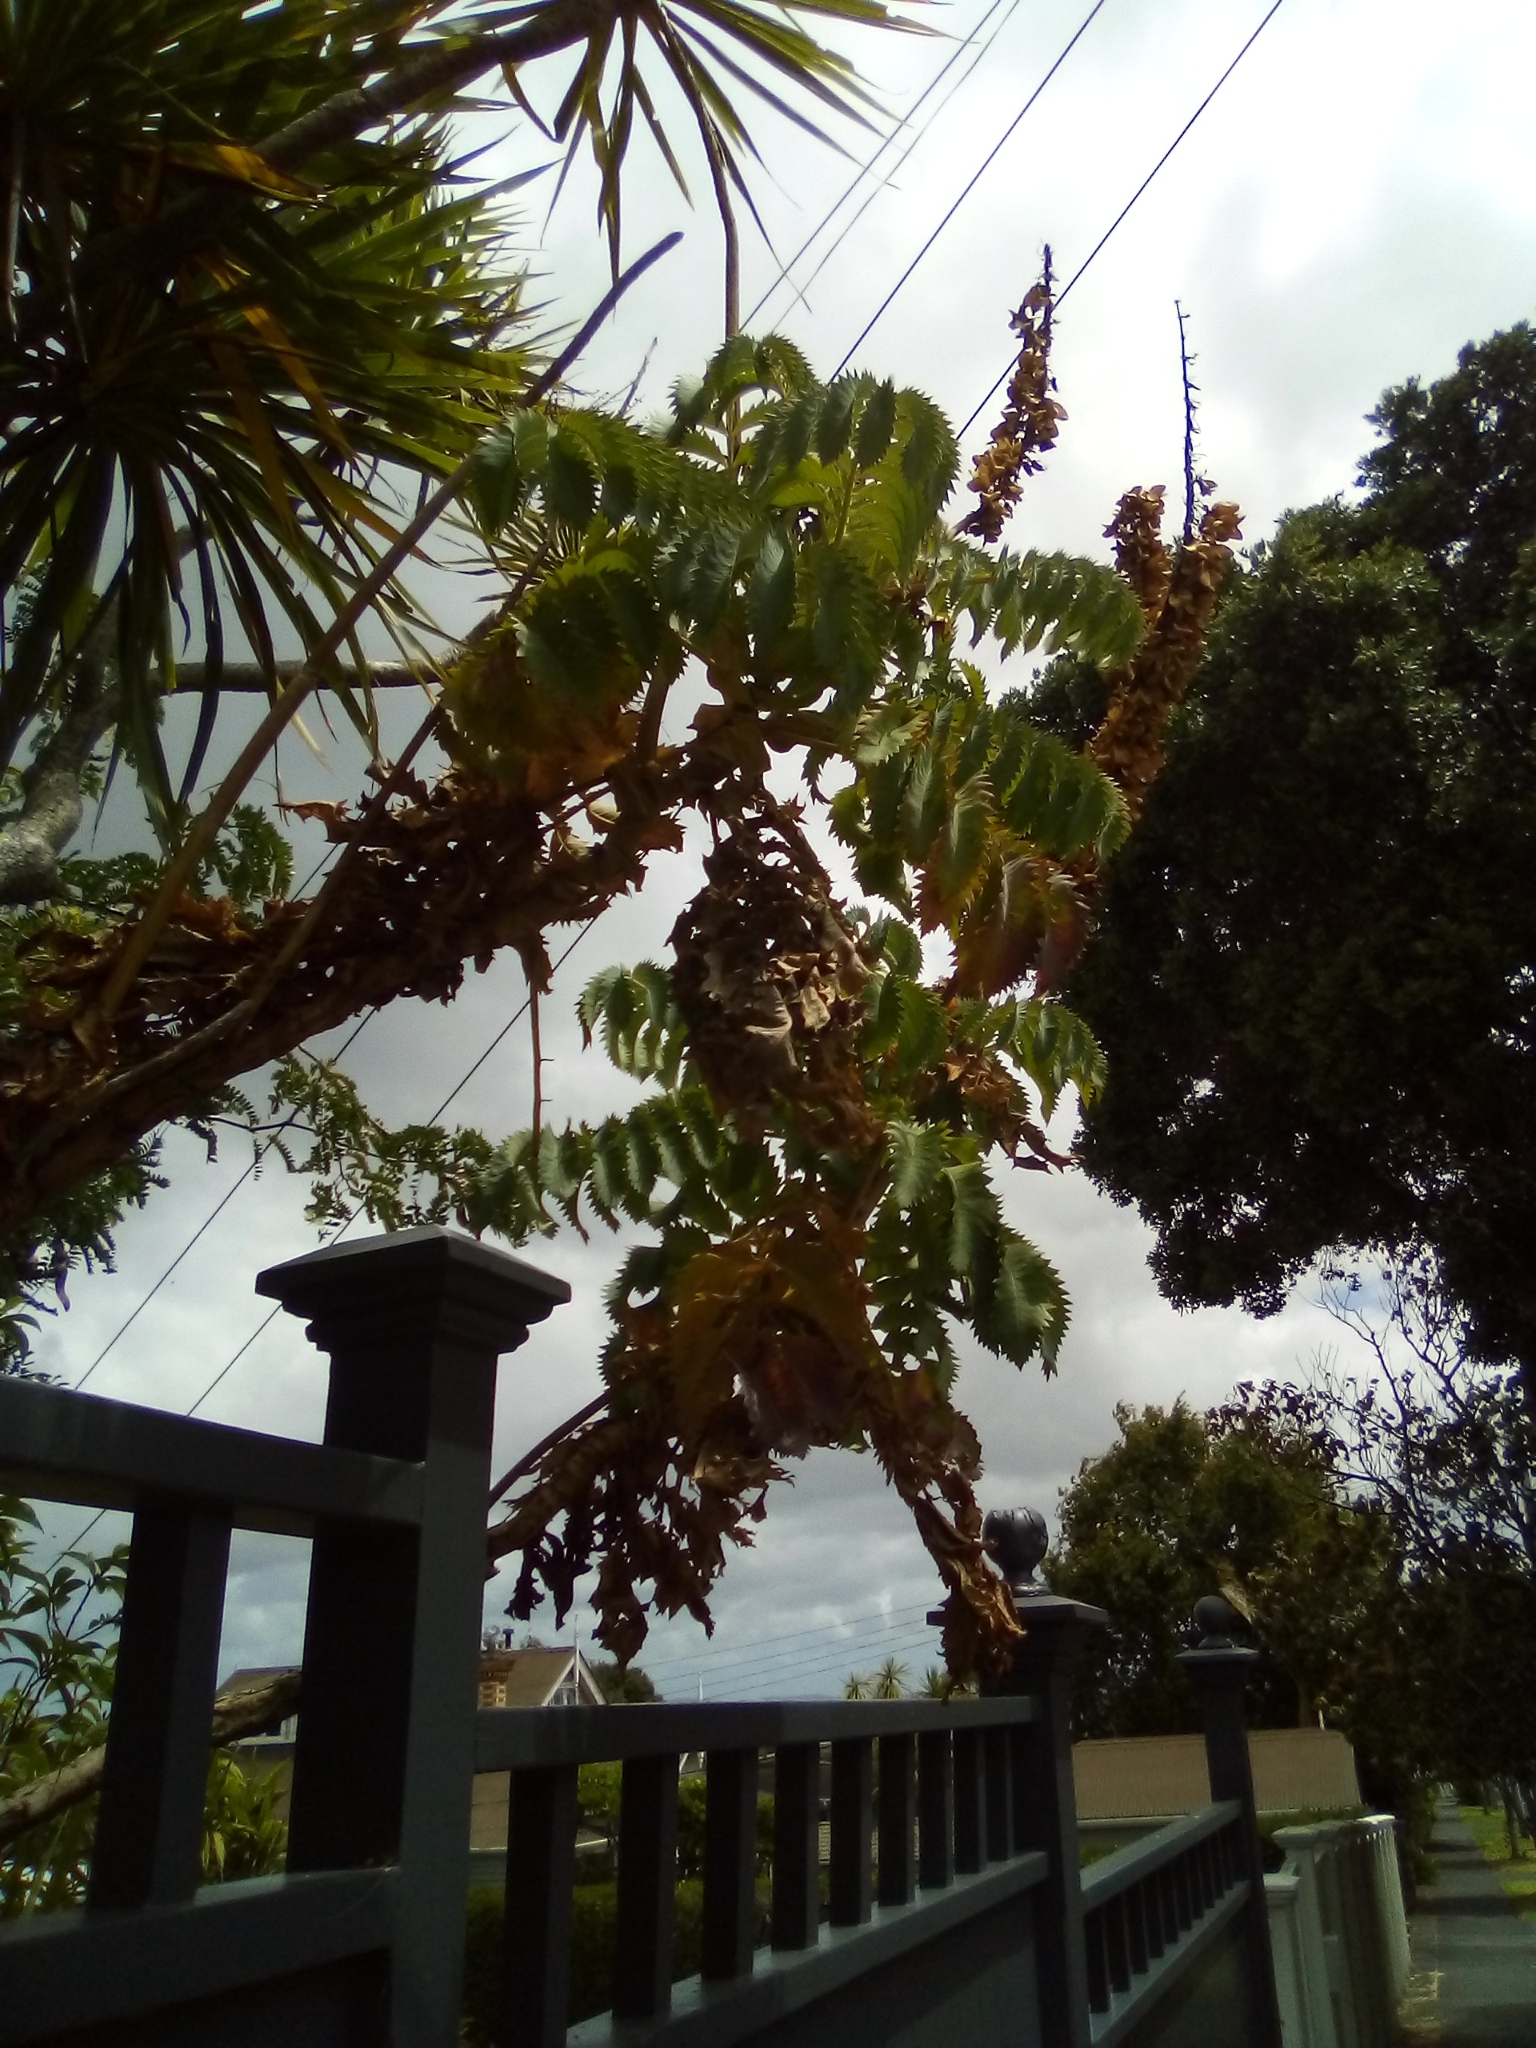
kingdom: Plantae
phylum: Tracheophyta
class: Magnoliopsida
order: Geraniales
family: Melianthaceae
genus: Melianthus
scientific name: Melianthus major
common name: Honey-flower
